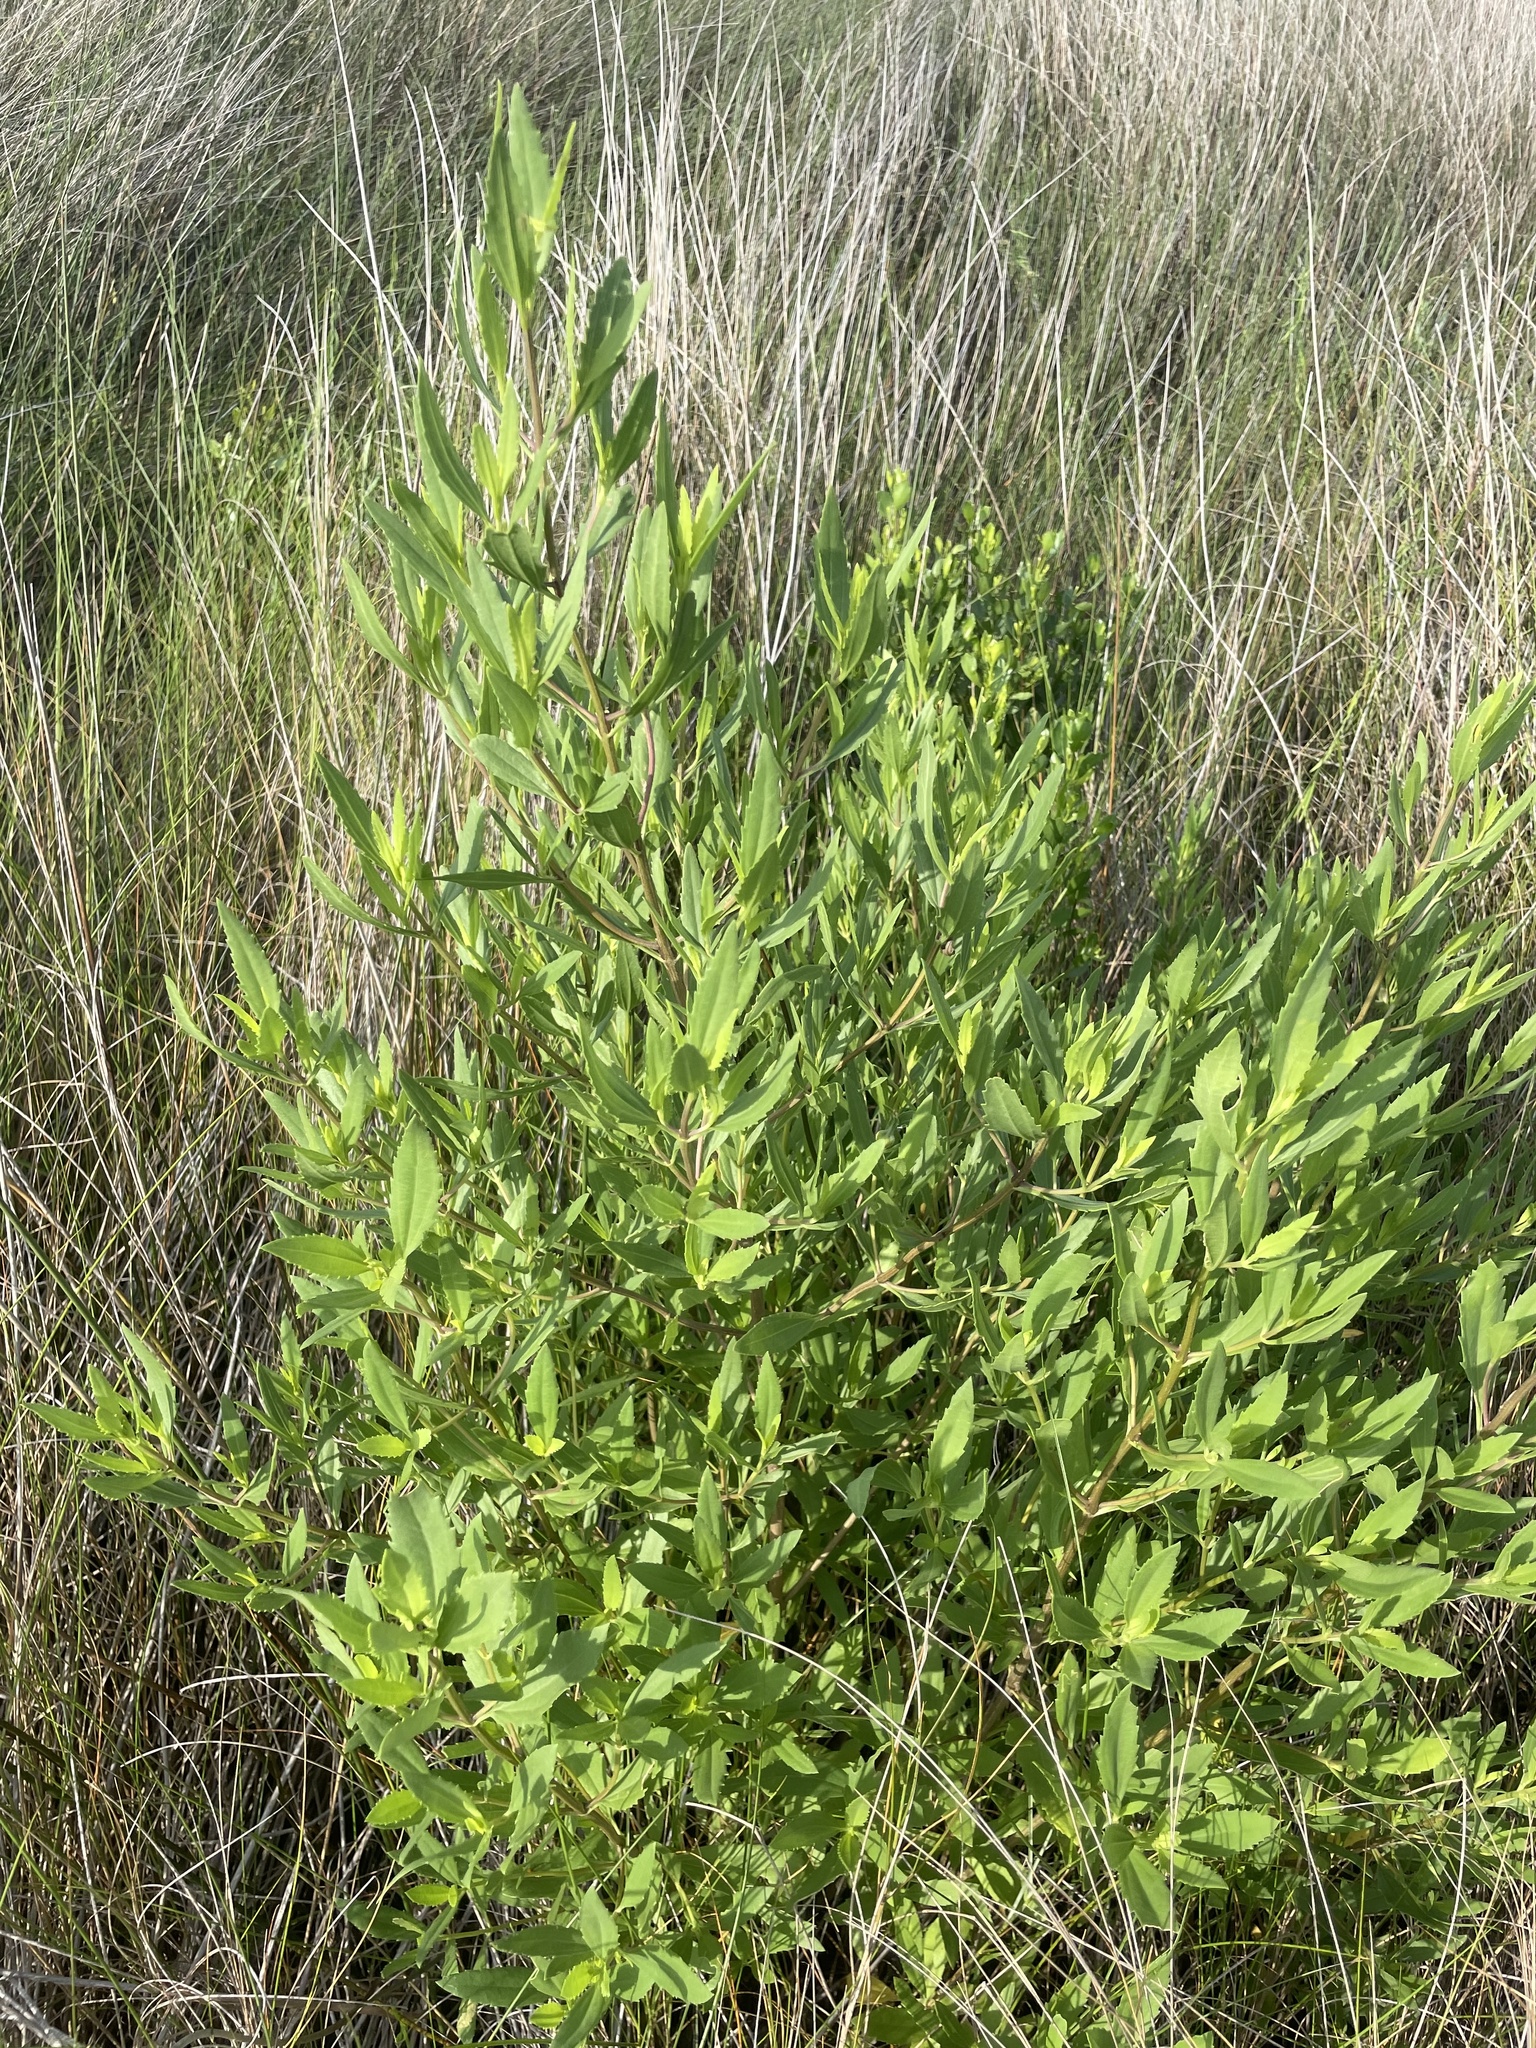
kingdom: Plantae
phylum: Tracheophyta
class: Magnoliopsida
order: Asterales
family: Asteraceae
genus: Iva
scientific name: Iva frutescens
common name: Big-leaved marsh-elder
